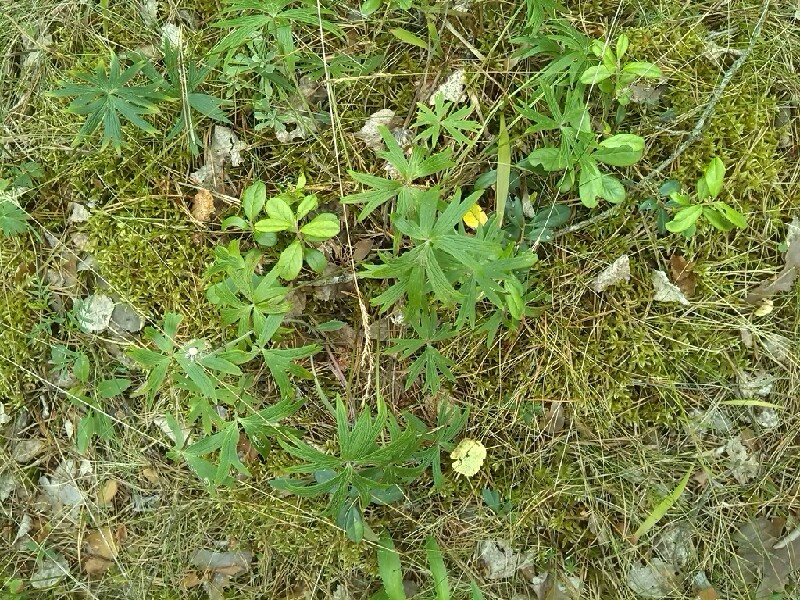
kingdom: Plantae
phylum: Tracheophyta
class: Magnoliopsida
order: Ranunculales
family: Ranunculaceae
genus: Pulsatilla
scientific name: Pulsatilla patens
